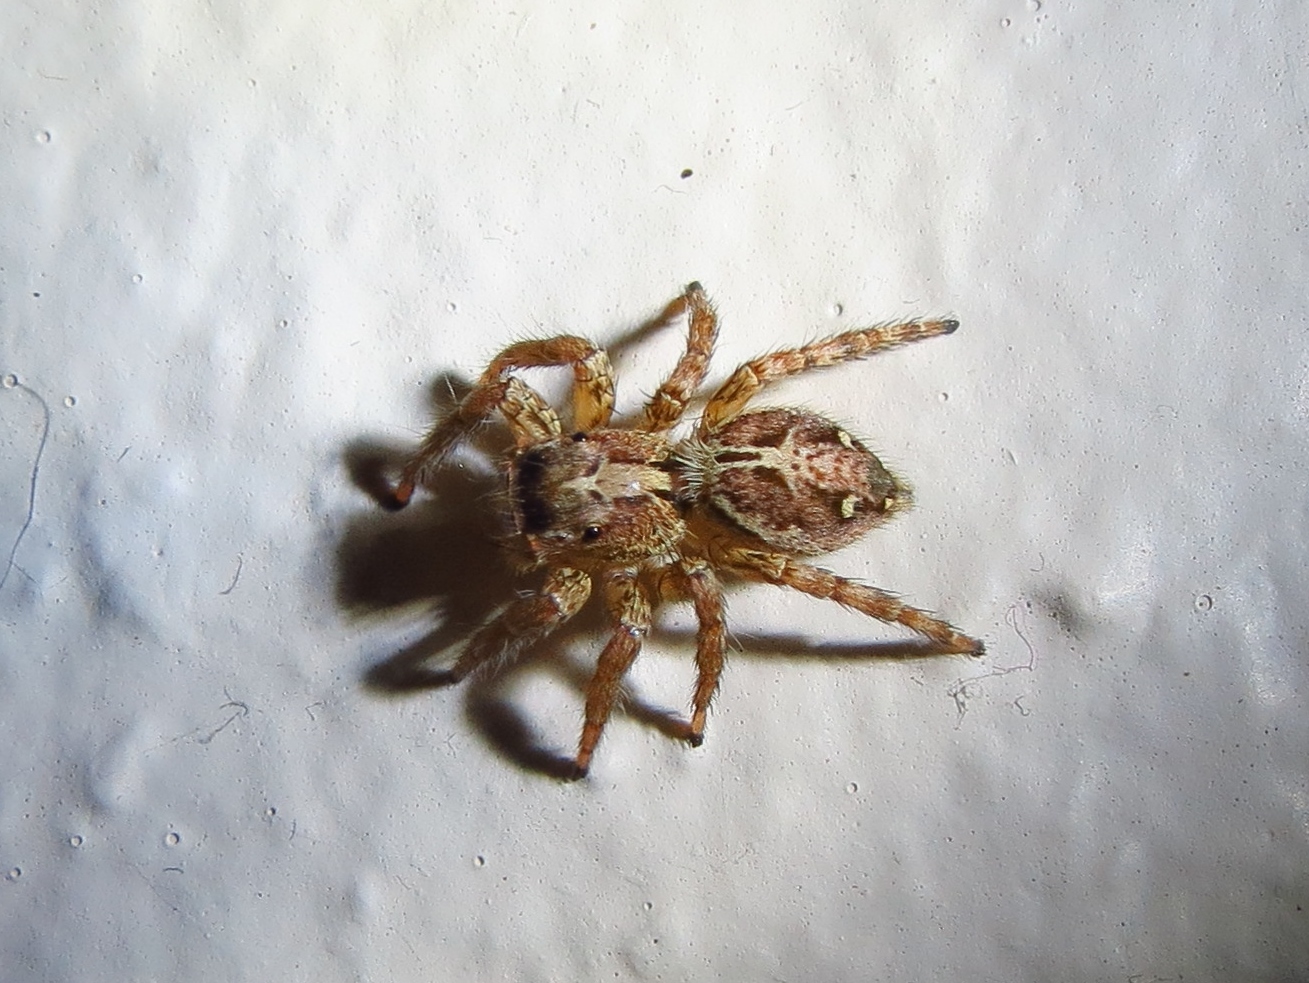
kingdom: Animalia
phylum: Arthropoda
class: Arachnida
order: Araneae
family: Salticidae
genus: Plexippus
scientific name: Plexippus paykulli
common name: Pantropical jumper
